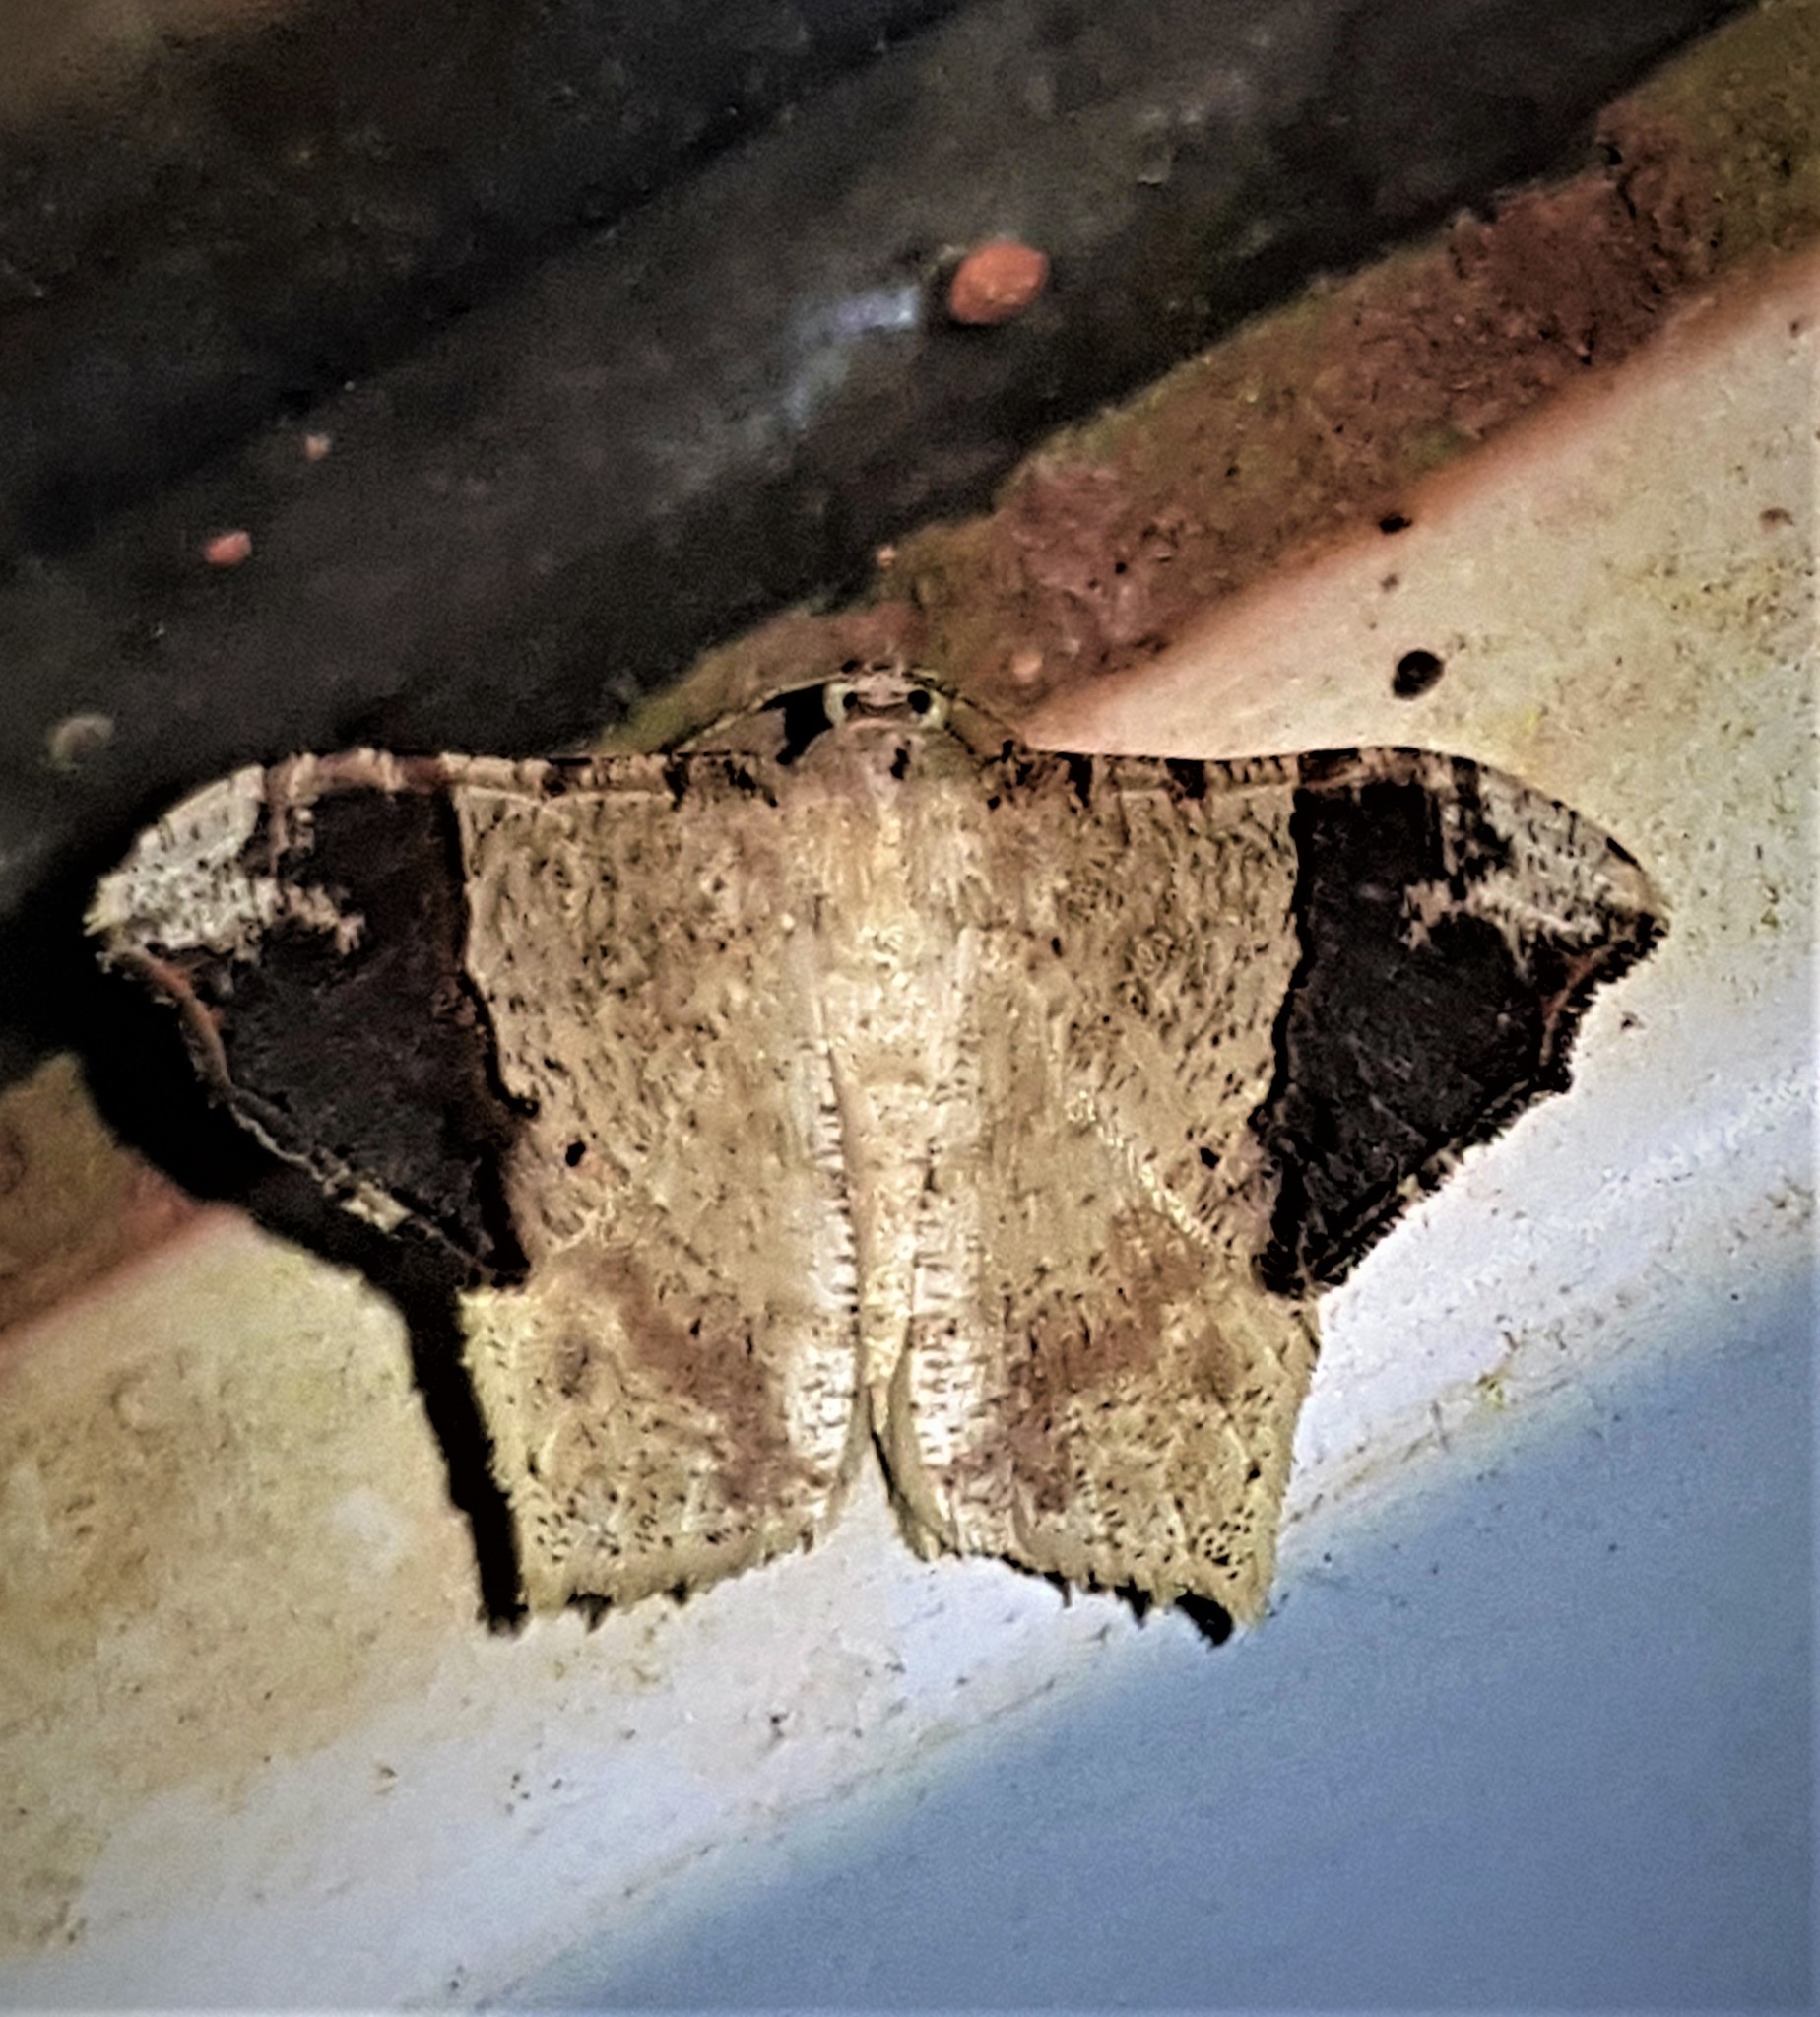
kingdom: Animalia
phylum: Arthropoda
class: Insecta
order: Lepidoptera
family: Geometridae
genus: Macaria
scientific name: Macaria gambarina
